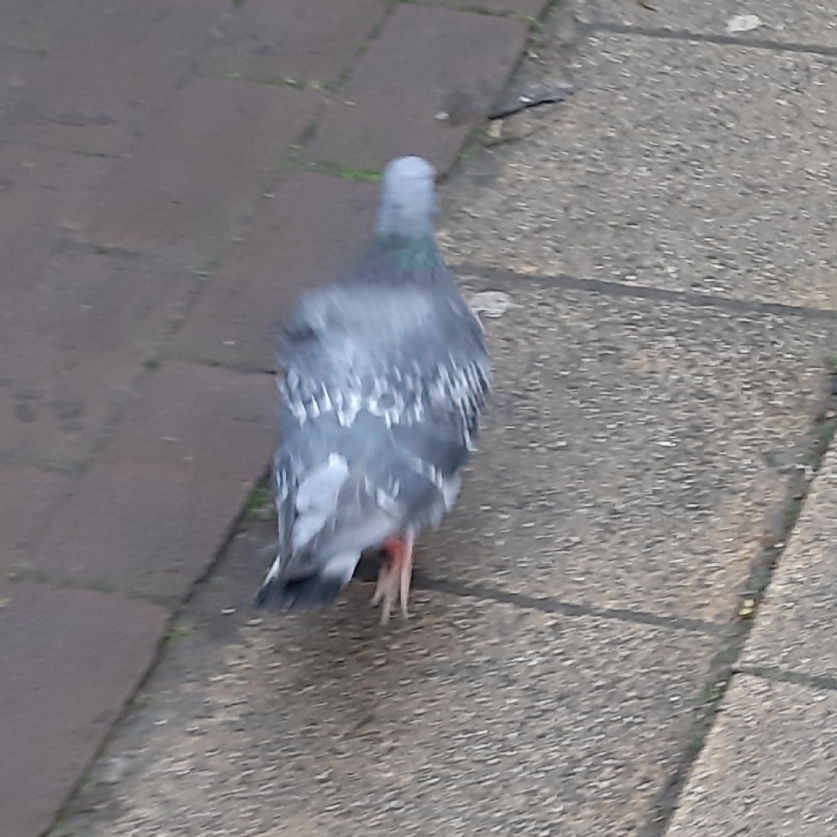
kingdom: Animalia
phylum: Chordata
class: Aves
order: Columbiformes
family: Columbidae
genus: Columba
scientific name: Columba livia
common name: Rock pigeon
